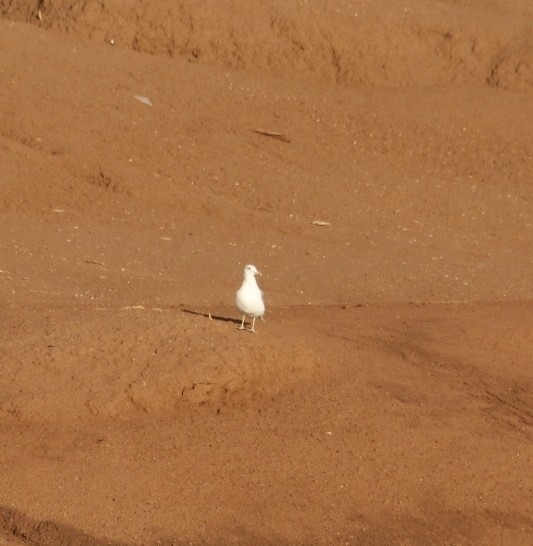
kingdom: Animalia
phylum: Chordata
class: Aves
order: Charadriiformes
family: Laridae
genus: Larus
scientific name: Larus delawarensis
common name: Ring-billed gull
